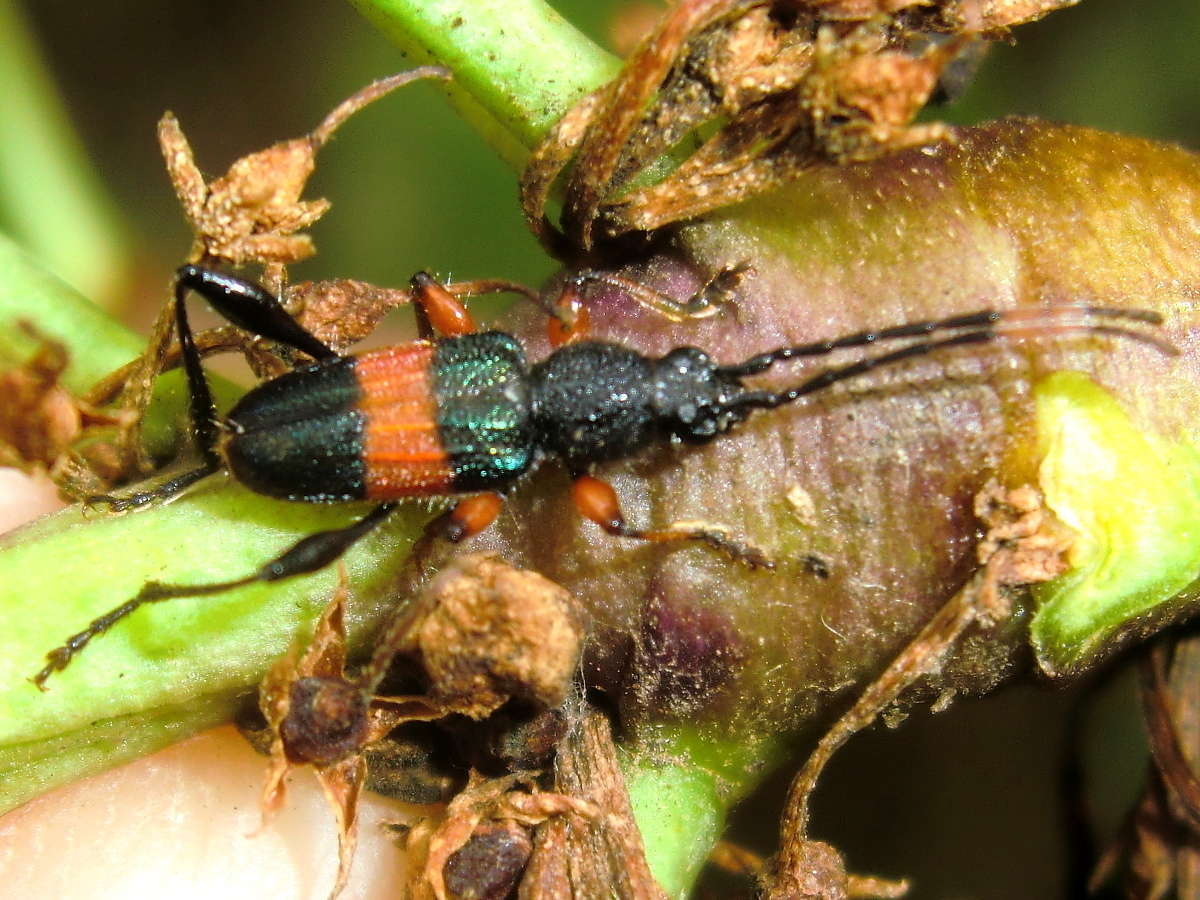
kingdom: Animalia
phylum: Arthropoda
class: Insecta
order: Coleoptera
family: Cerambycidae
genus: Obrida
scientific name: Obrida fascialis
